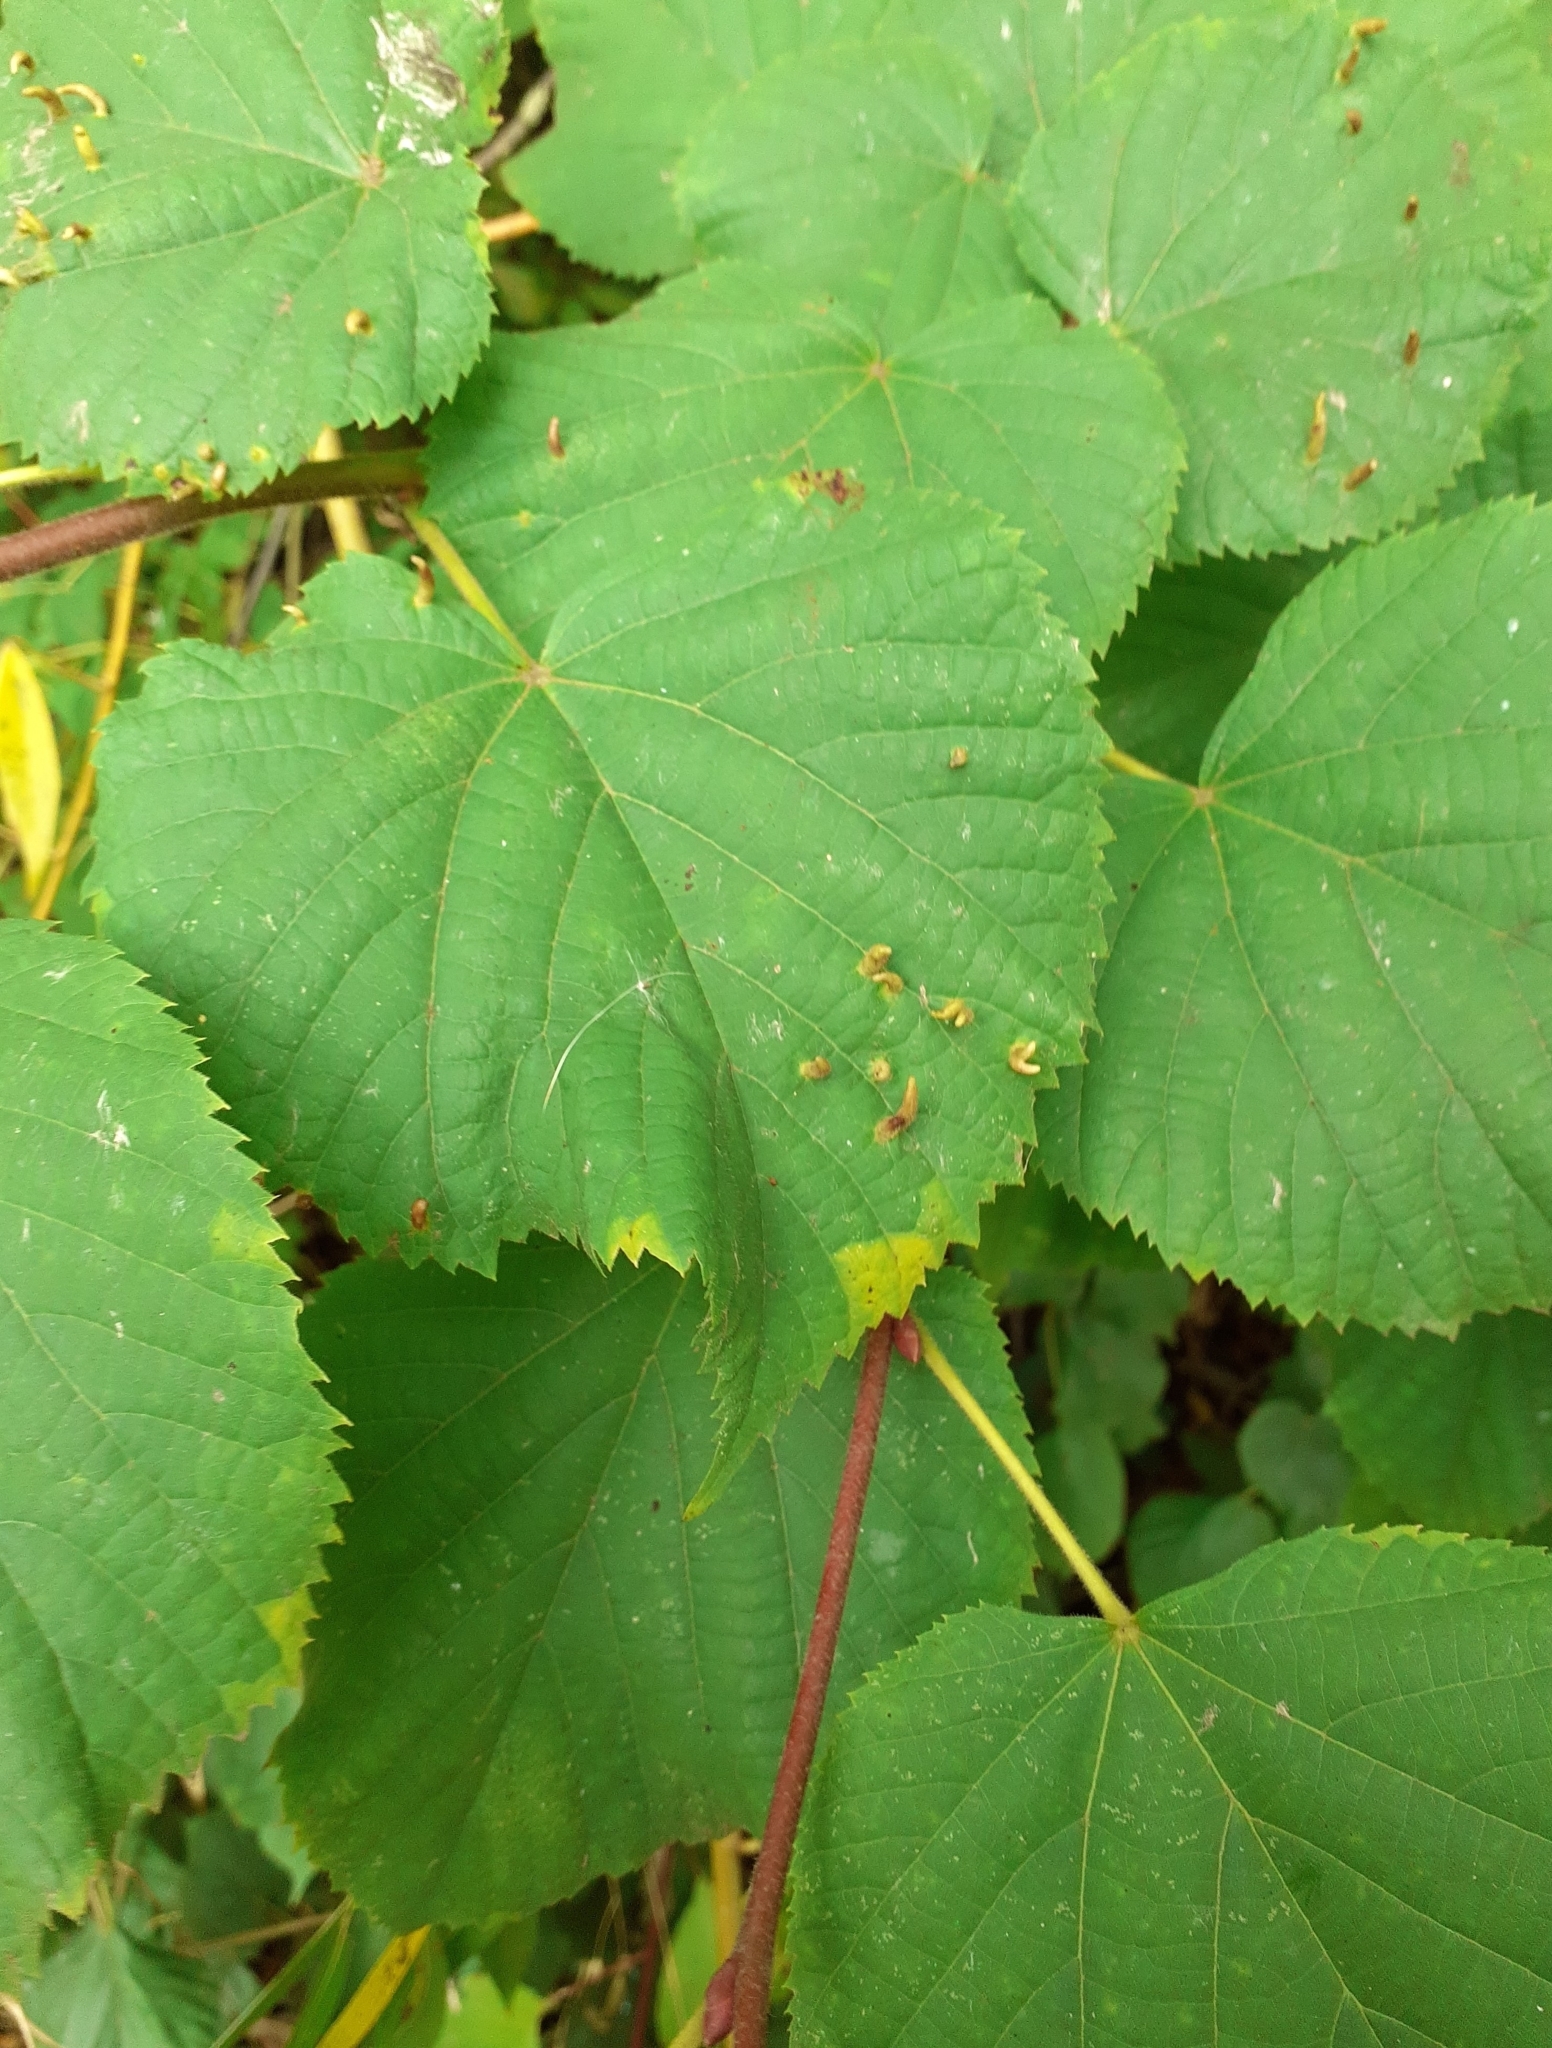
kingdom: Animalia
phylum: Arthropoda
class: Arachnida
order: Trombidiformes
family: Eriophyidae
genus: Eriophyes
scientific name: Eriophyes tiliae
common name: Red nail gall mite
